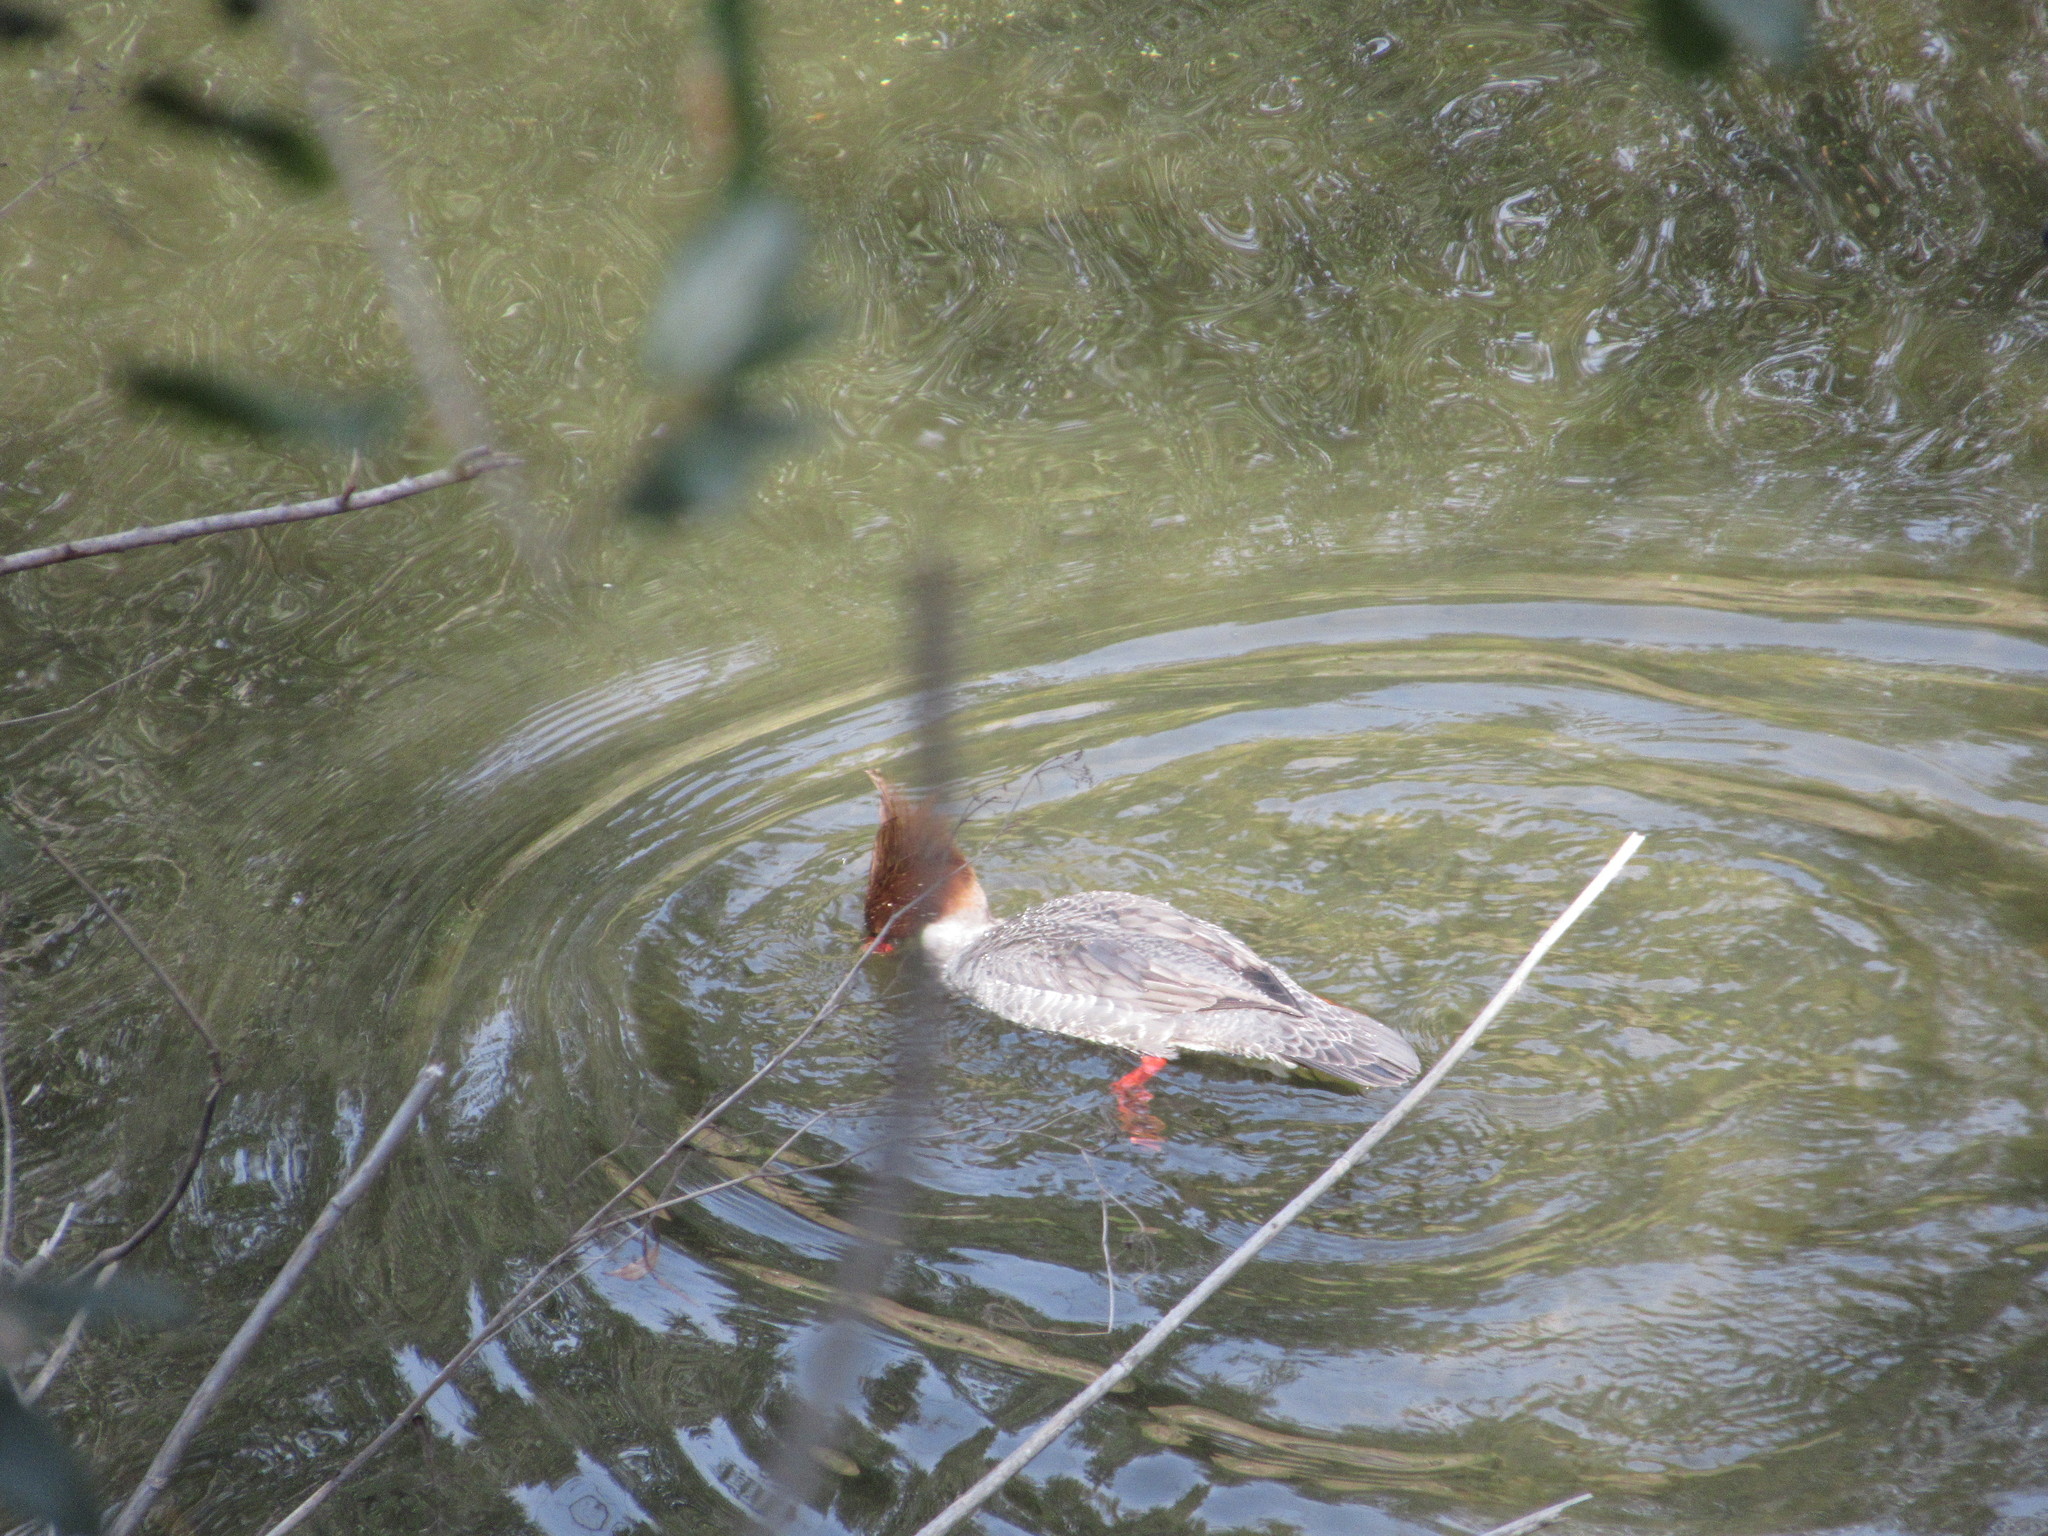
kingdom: Animalia
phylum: Chordata
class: Aves
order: Anseriformes
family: Anatidae
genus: Mergus
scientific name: Mergus merganser
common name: Common merganser
